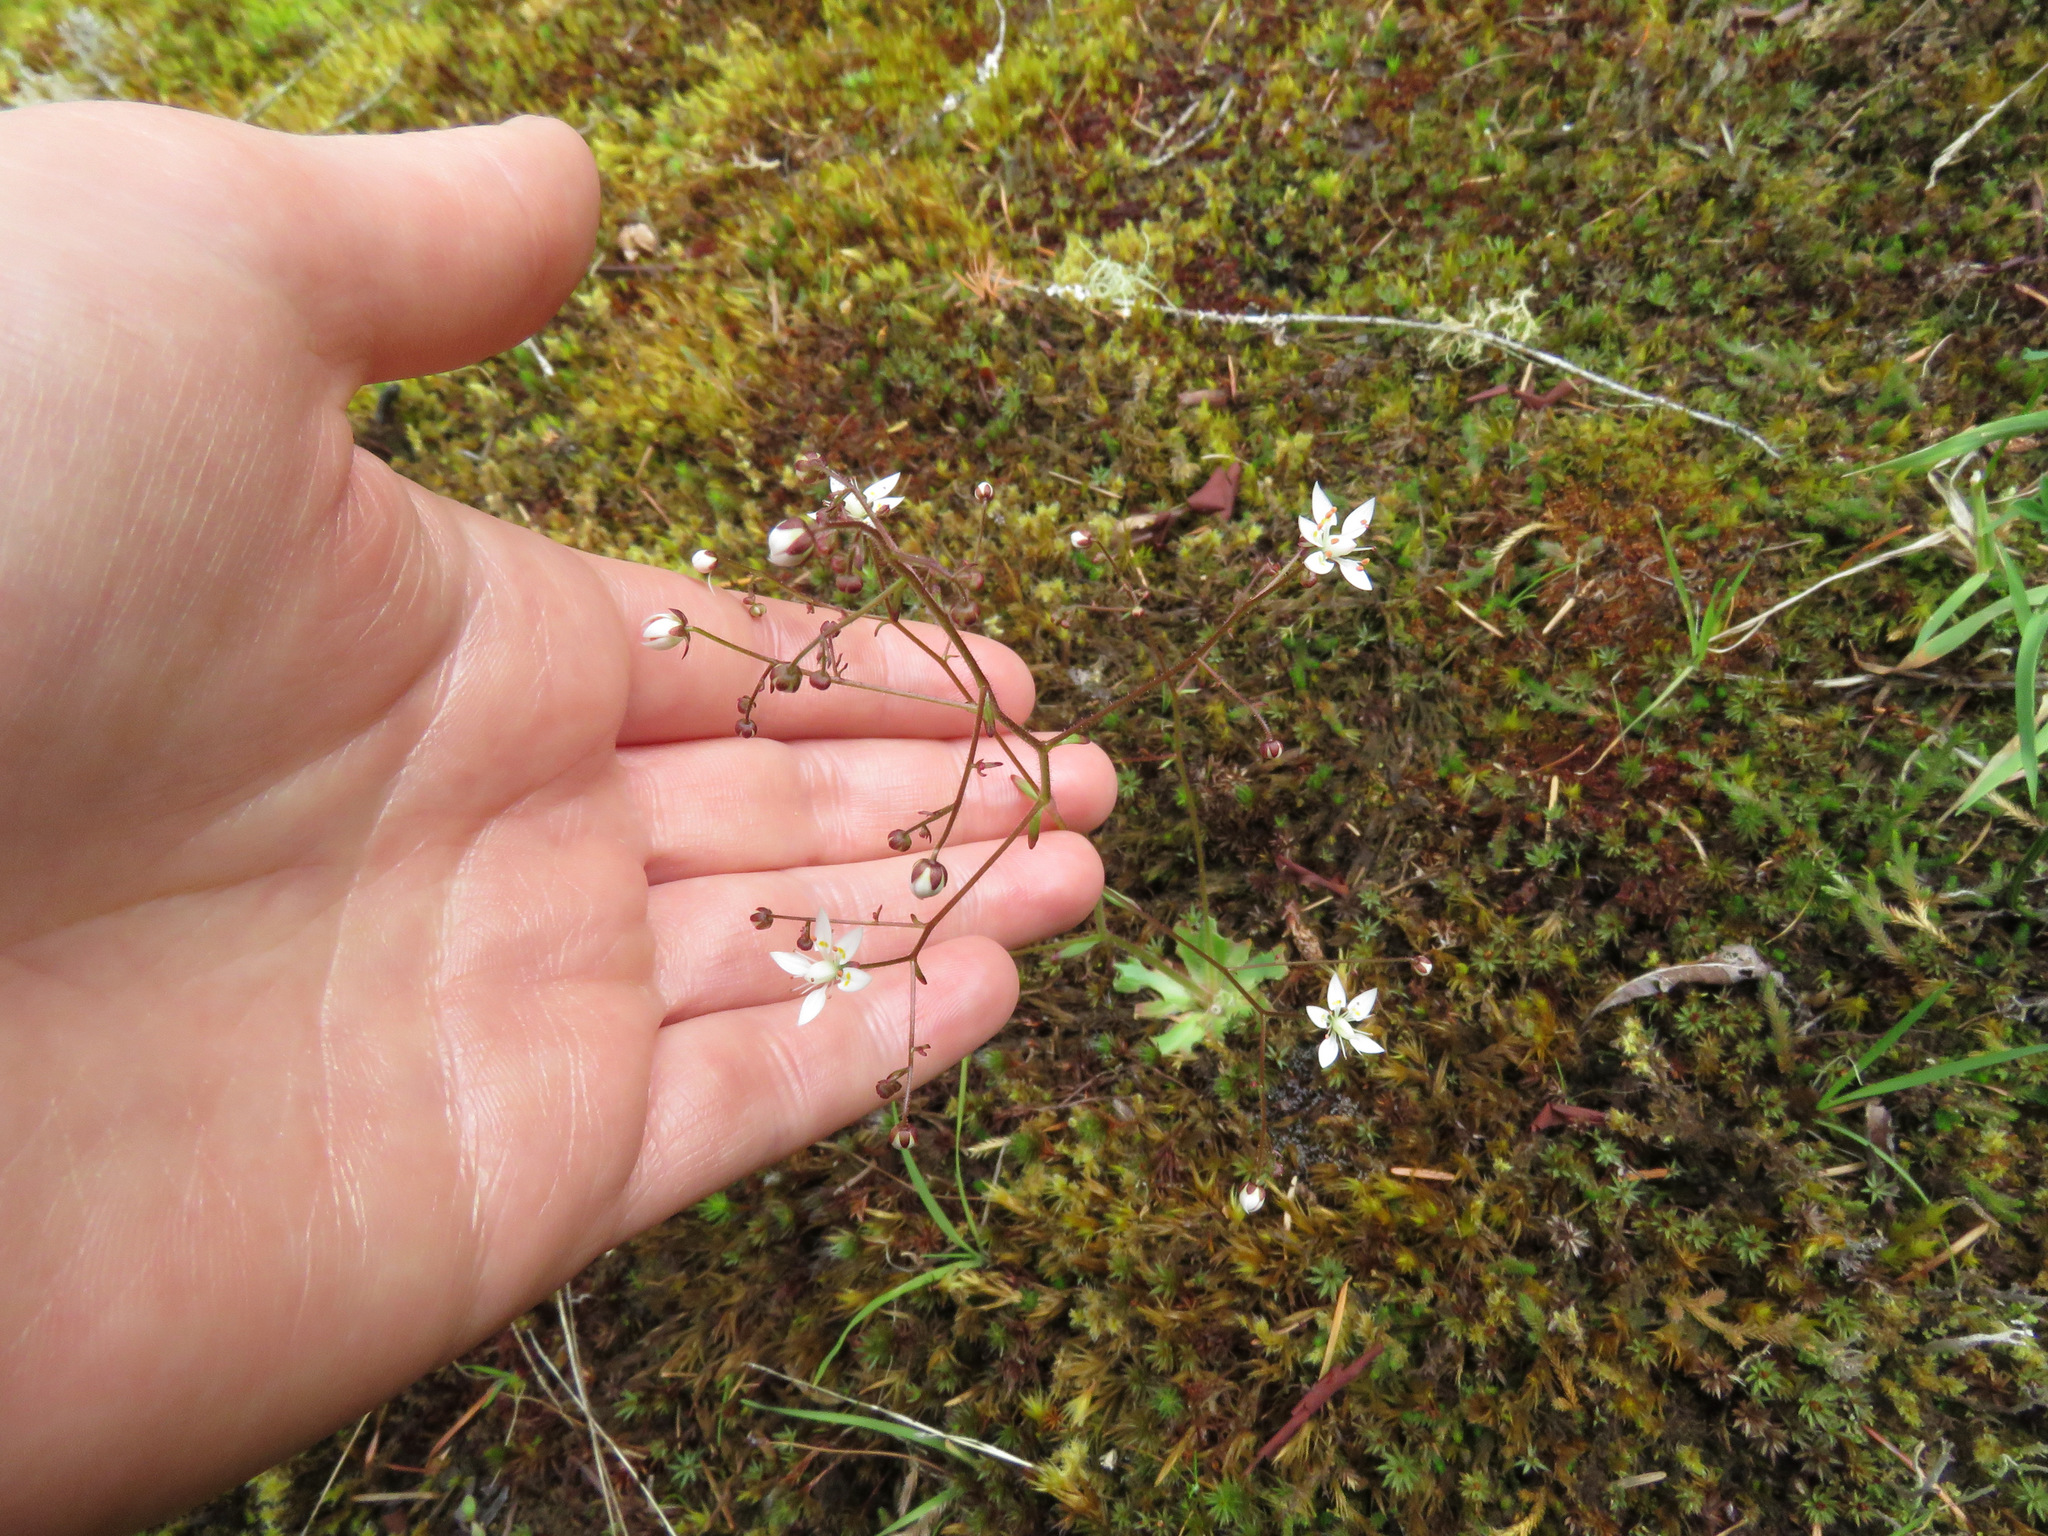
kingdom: Plantae
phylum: Tracheophyta
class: Magnoliopsida
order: Saxifragales
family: Saxifragaceae
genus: Micranthes
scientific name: Micranthes ferruginea
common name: Rusty saxifrage
